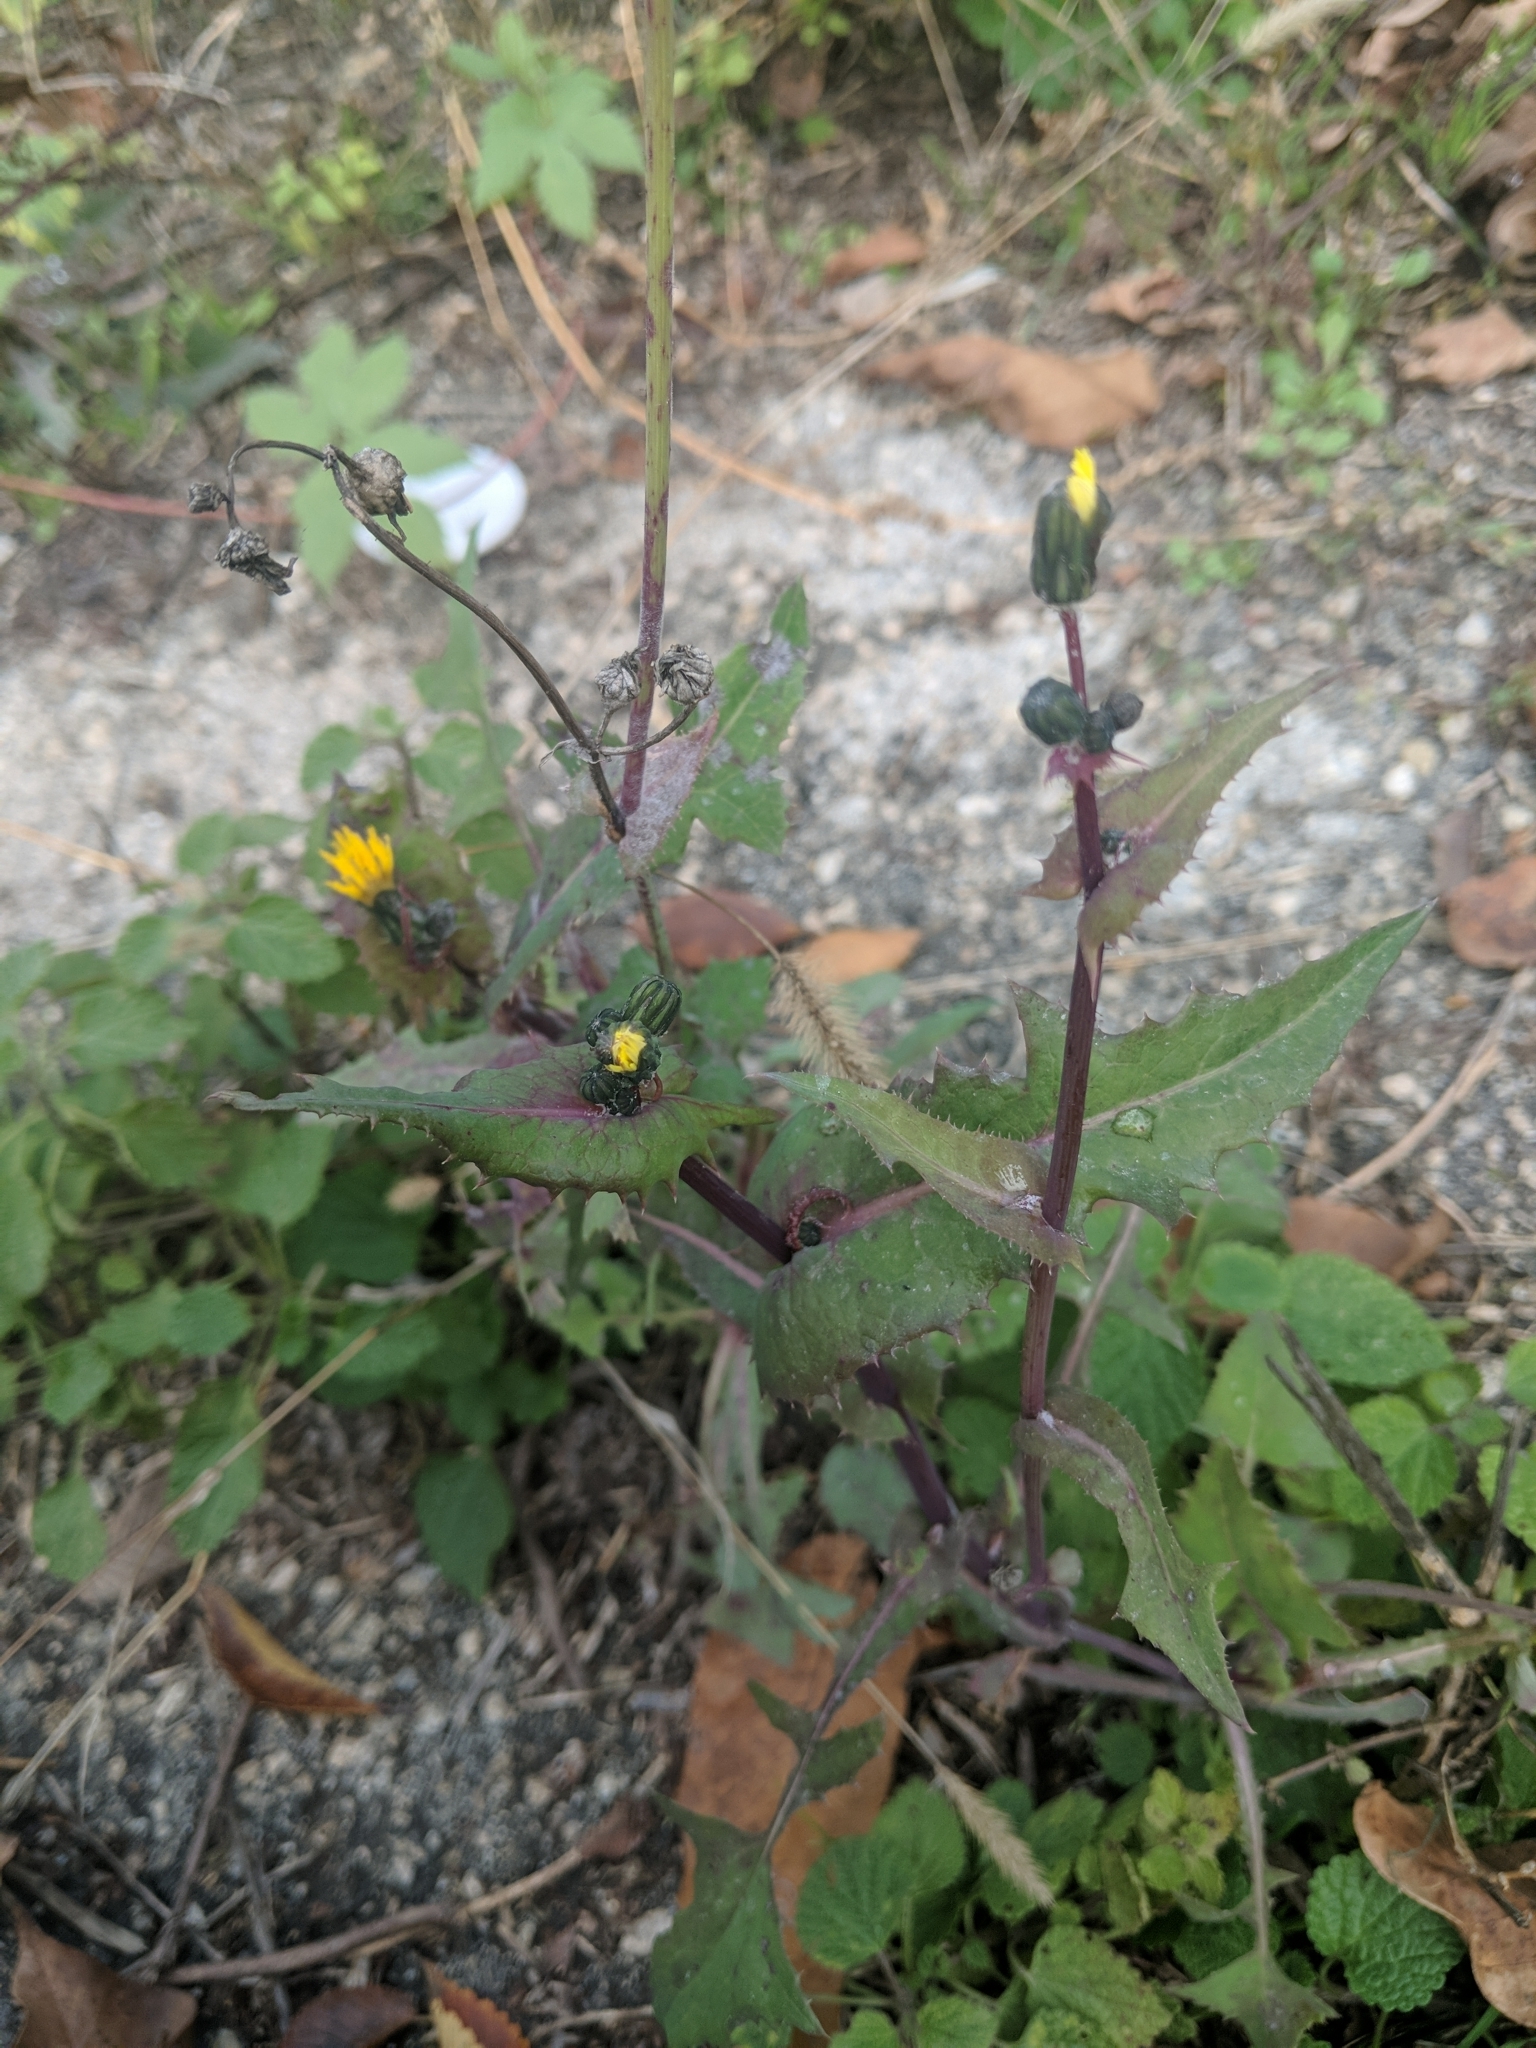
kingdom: Plantae
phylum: Tracheophyta
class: Magnoliopsida
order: Asterales
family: Asteraceae
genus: Sonchus
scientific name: Sonchus oleraceus
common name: Common sowthistle
